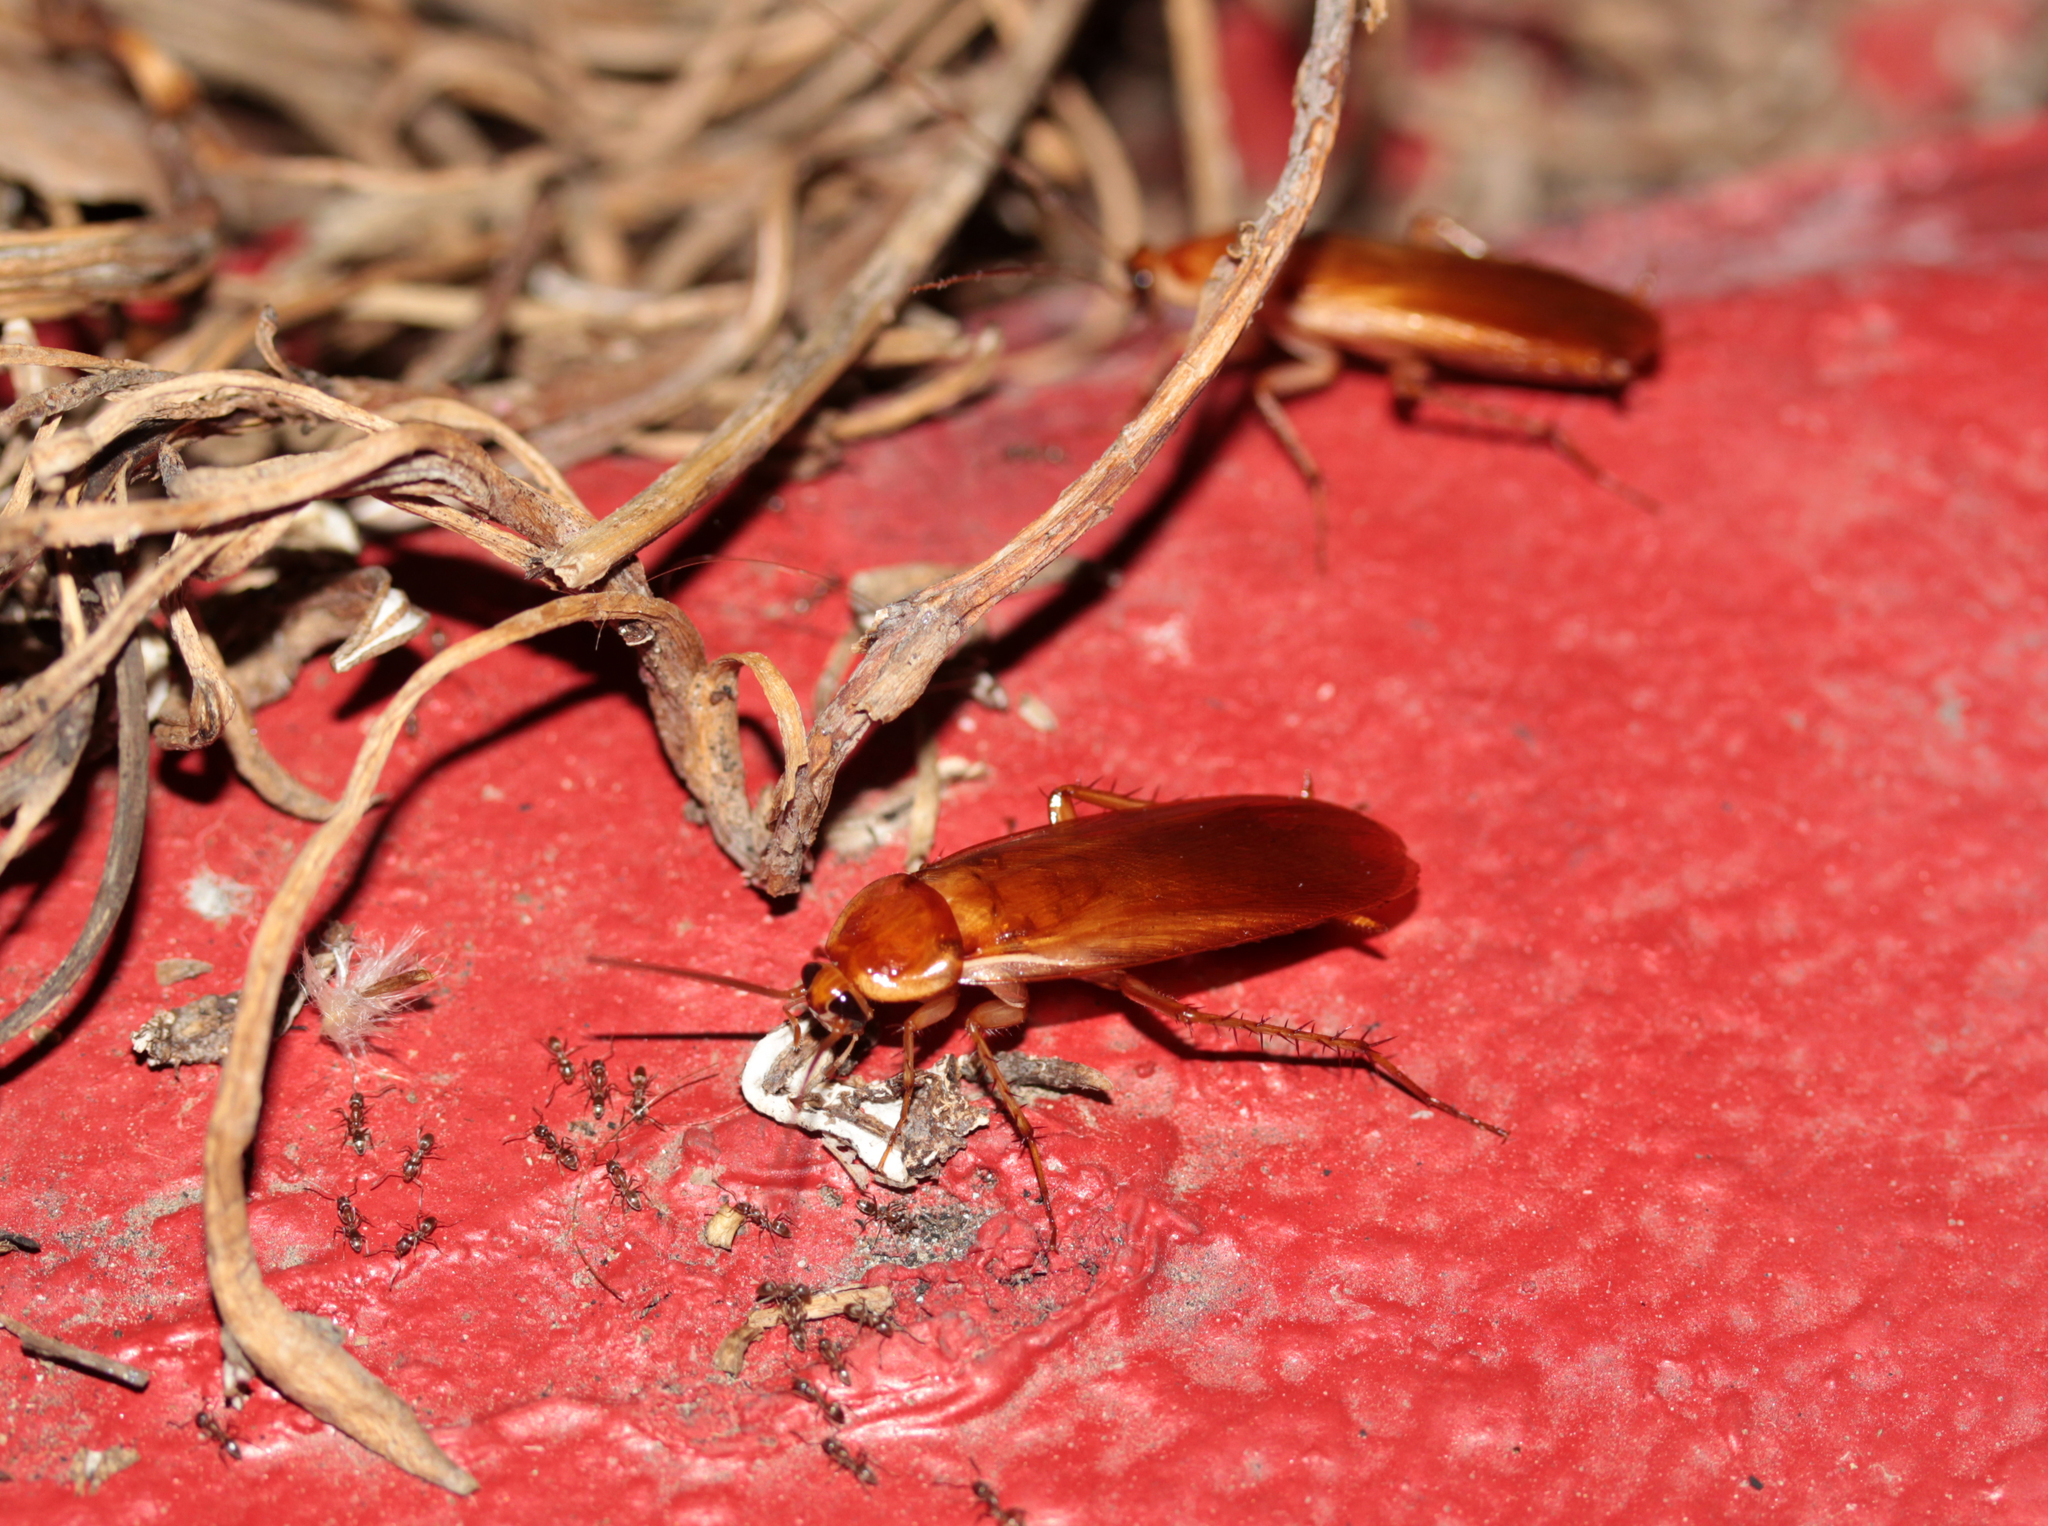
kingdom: Animalia
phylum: Arthropoda
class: Insecta
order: Blattodea
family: Blattidae
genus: Periplaneta
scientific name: Periplaneta lateralis
